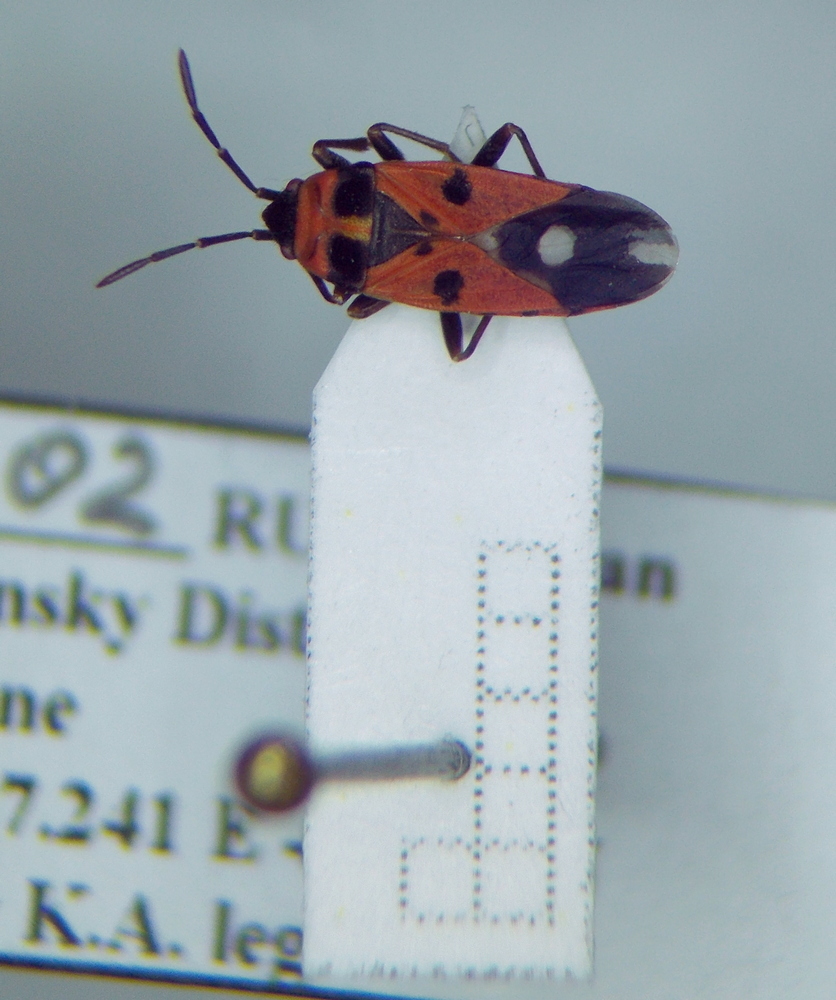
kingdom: Animalia
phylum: Arthropoda
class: Insecta
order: Hemiptera
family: Lygaeidae
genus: Horvathiolus
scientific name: Horvathiolus syriacus
